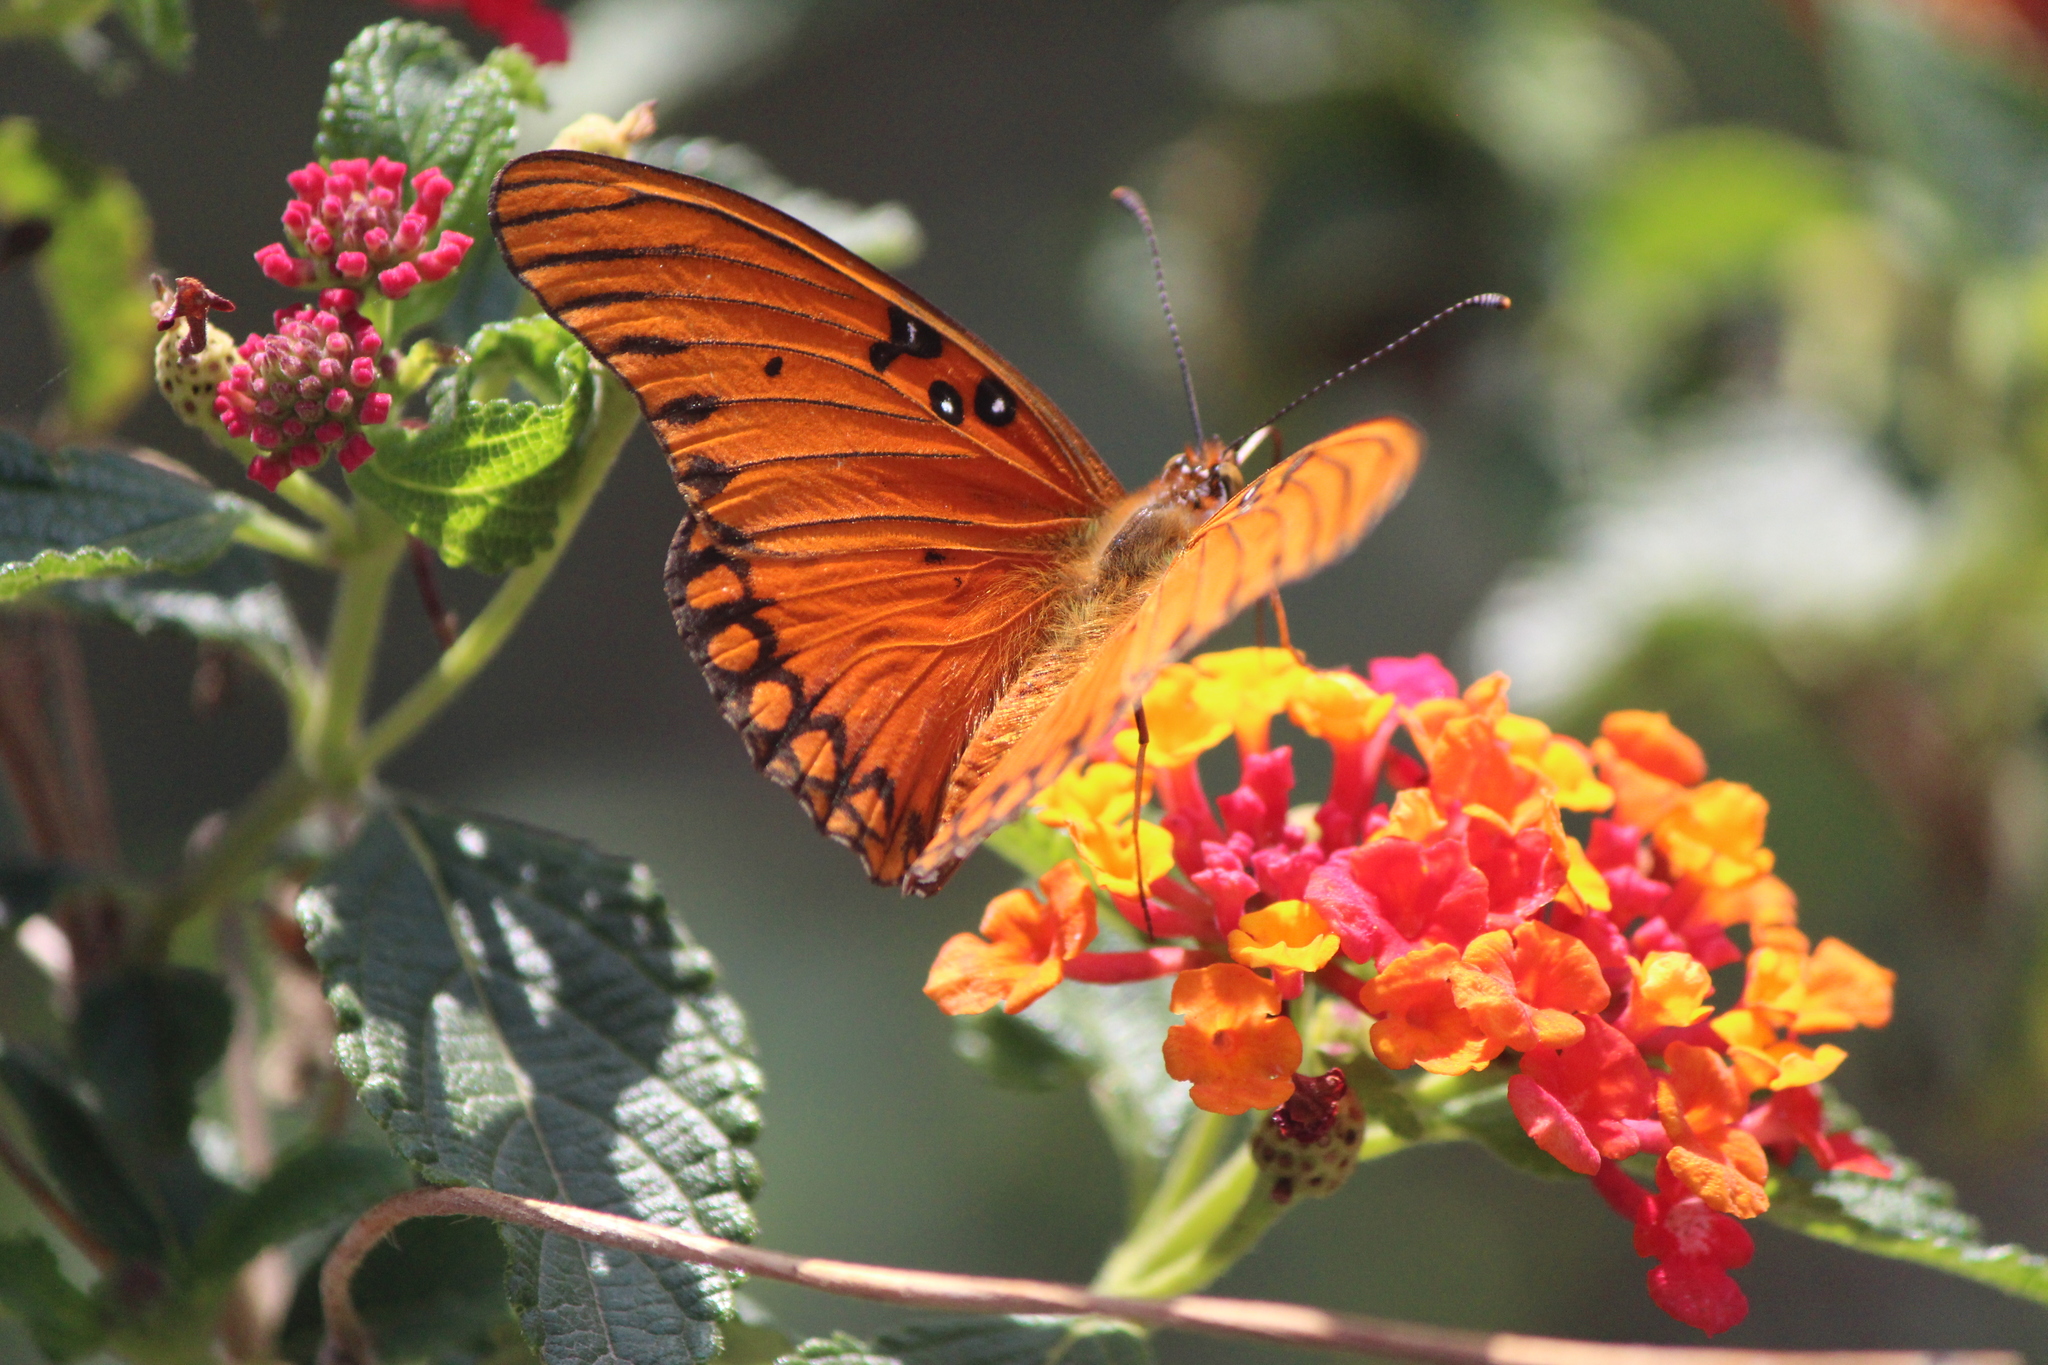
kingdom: Animalia
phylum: Arthropoda
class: Insecta
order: Lepidoptera
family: Nymphalidae
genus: Dione
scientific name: Dione vanillae
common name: Gulf fritillary
